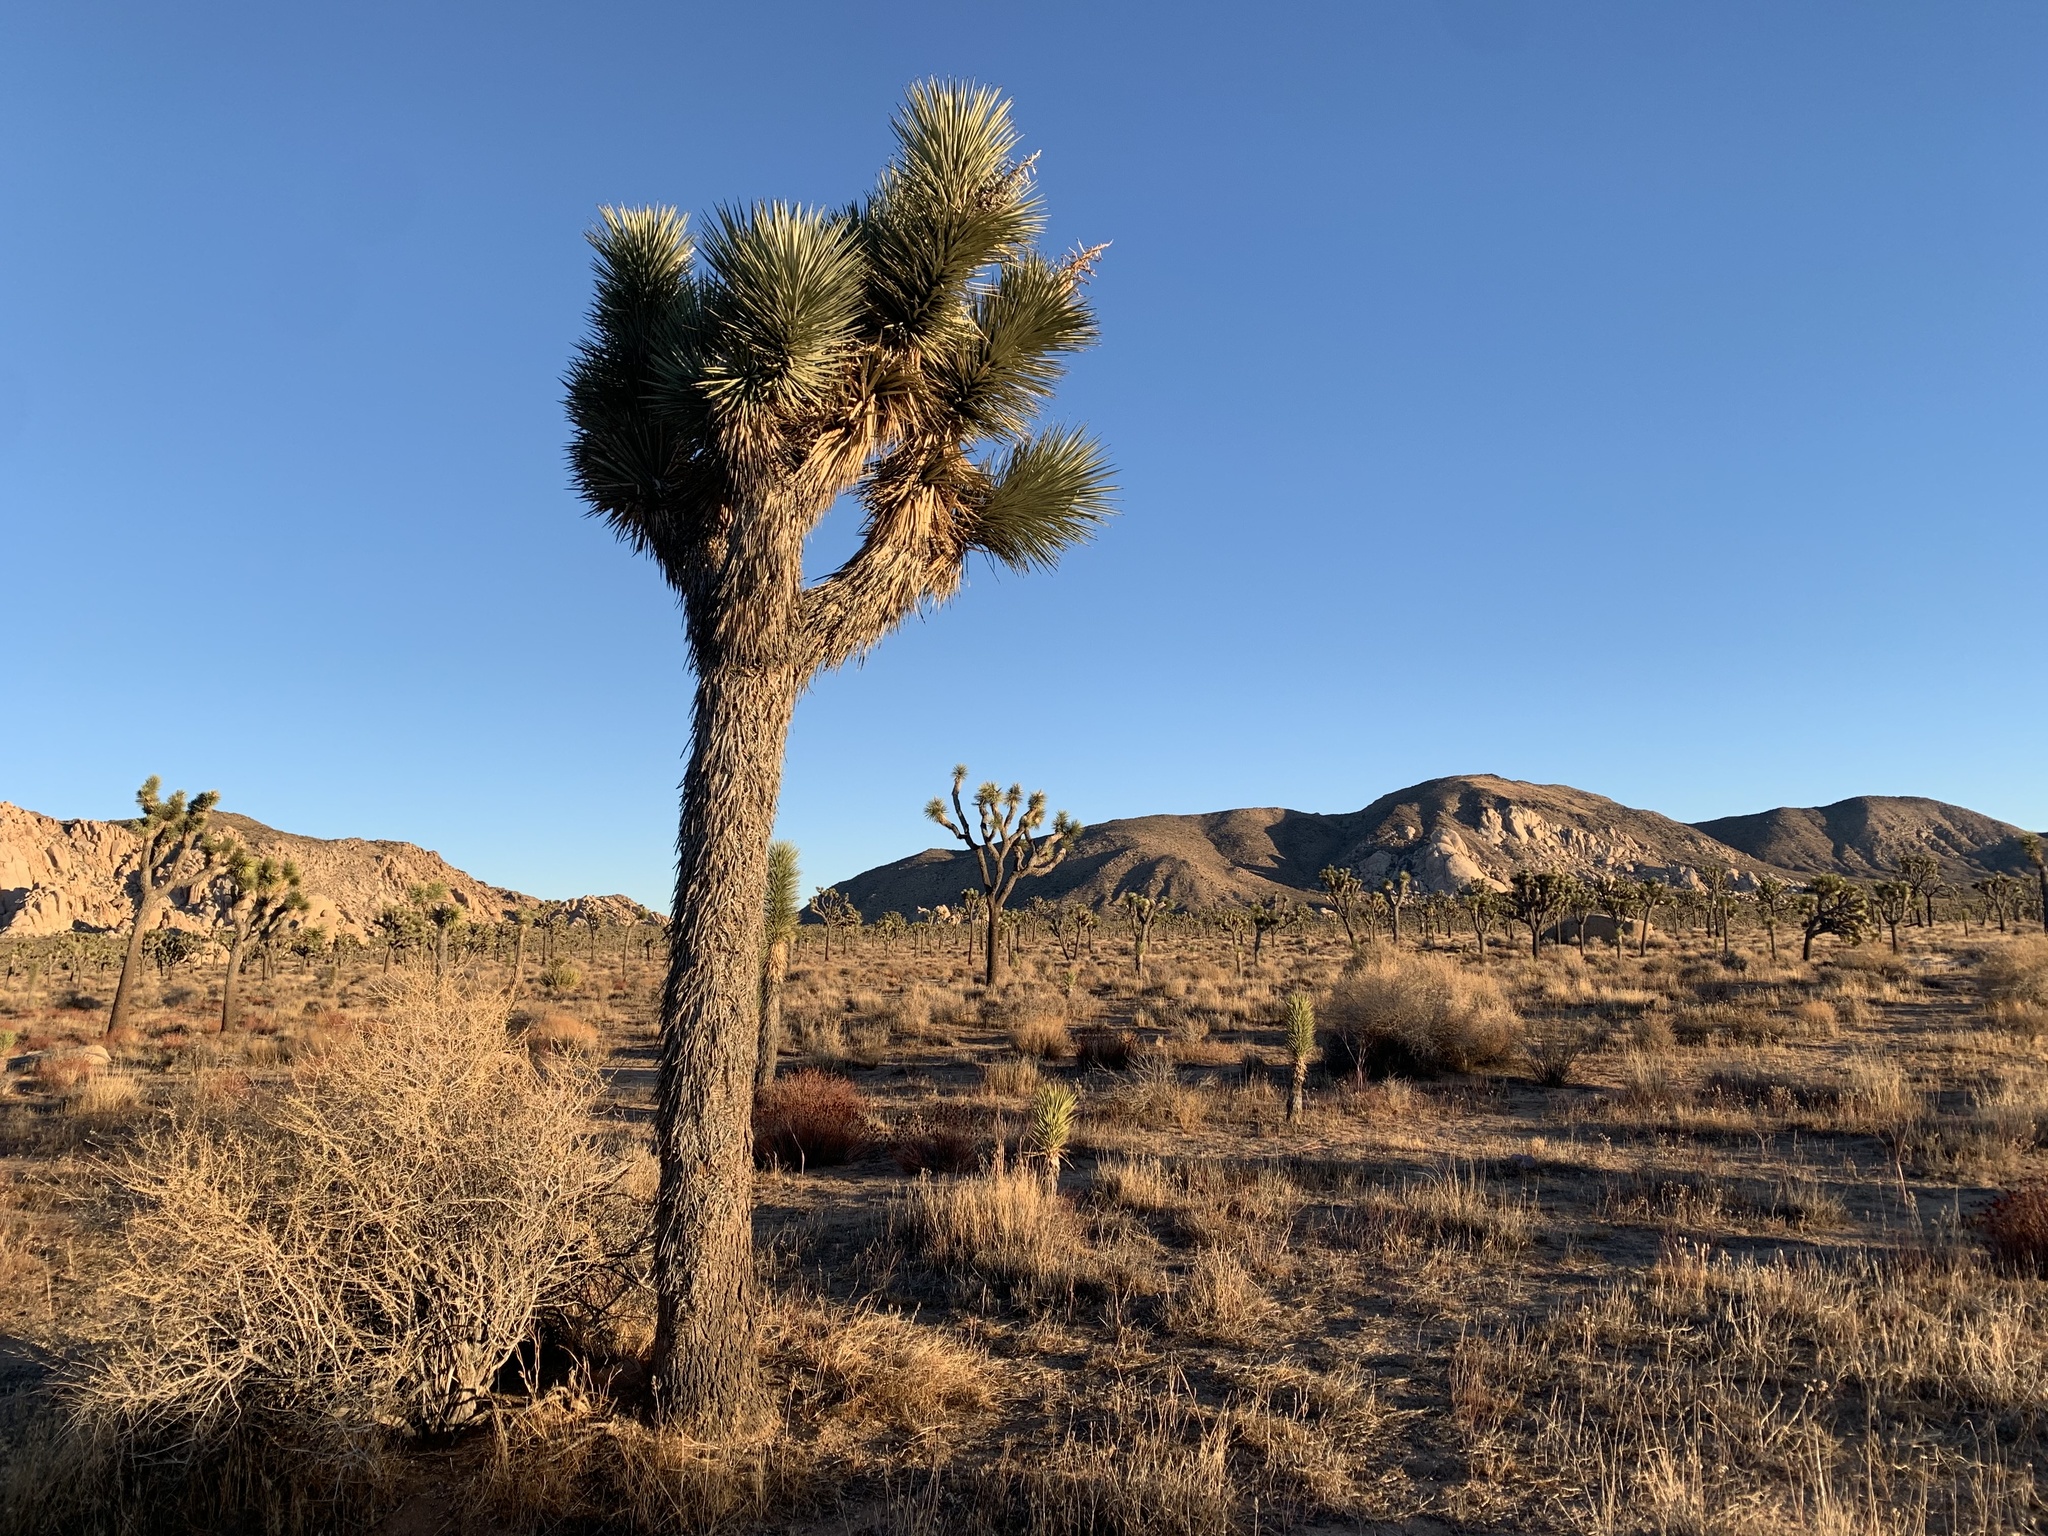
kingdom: Plantae
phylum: Tracheophyta
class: Liliopsida
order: Asparagales
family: Asparagaceae
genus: Yucca
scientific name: Yucca brevifolia
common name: Joshua tree
